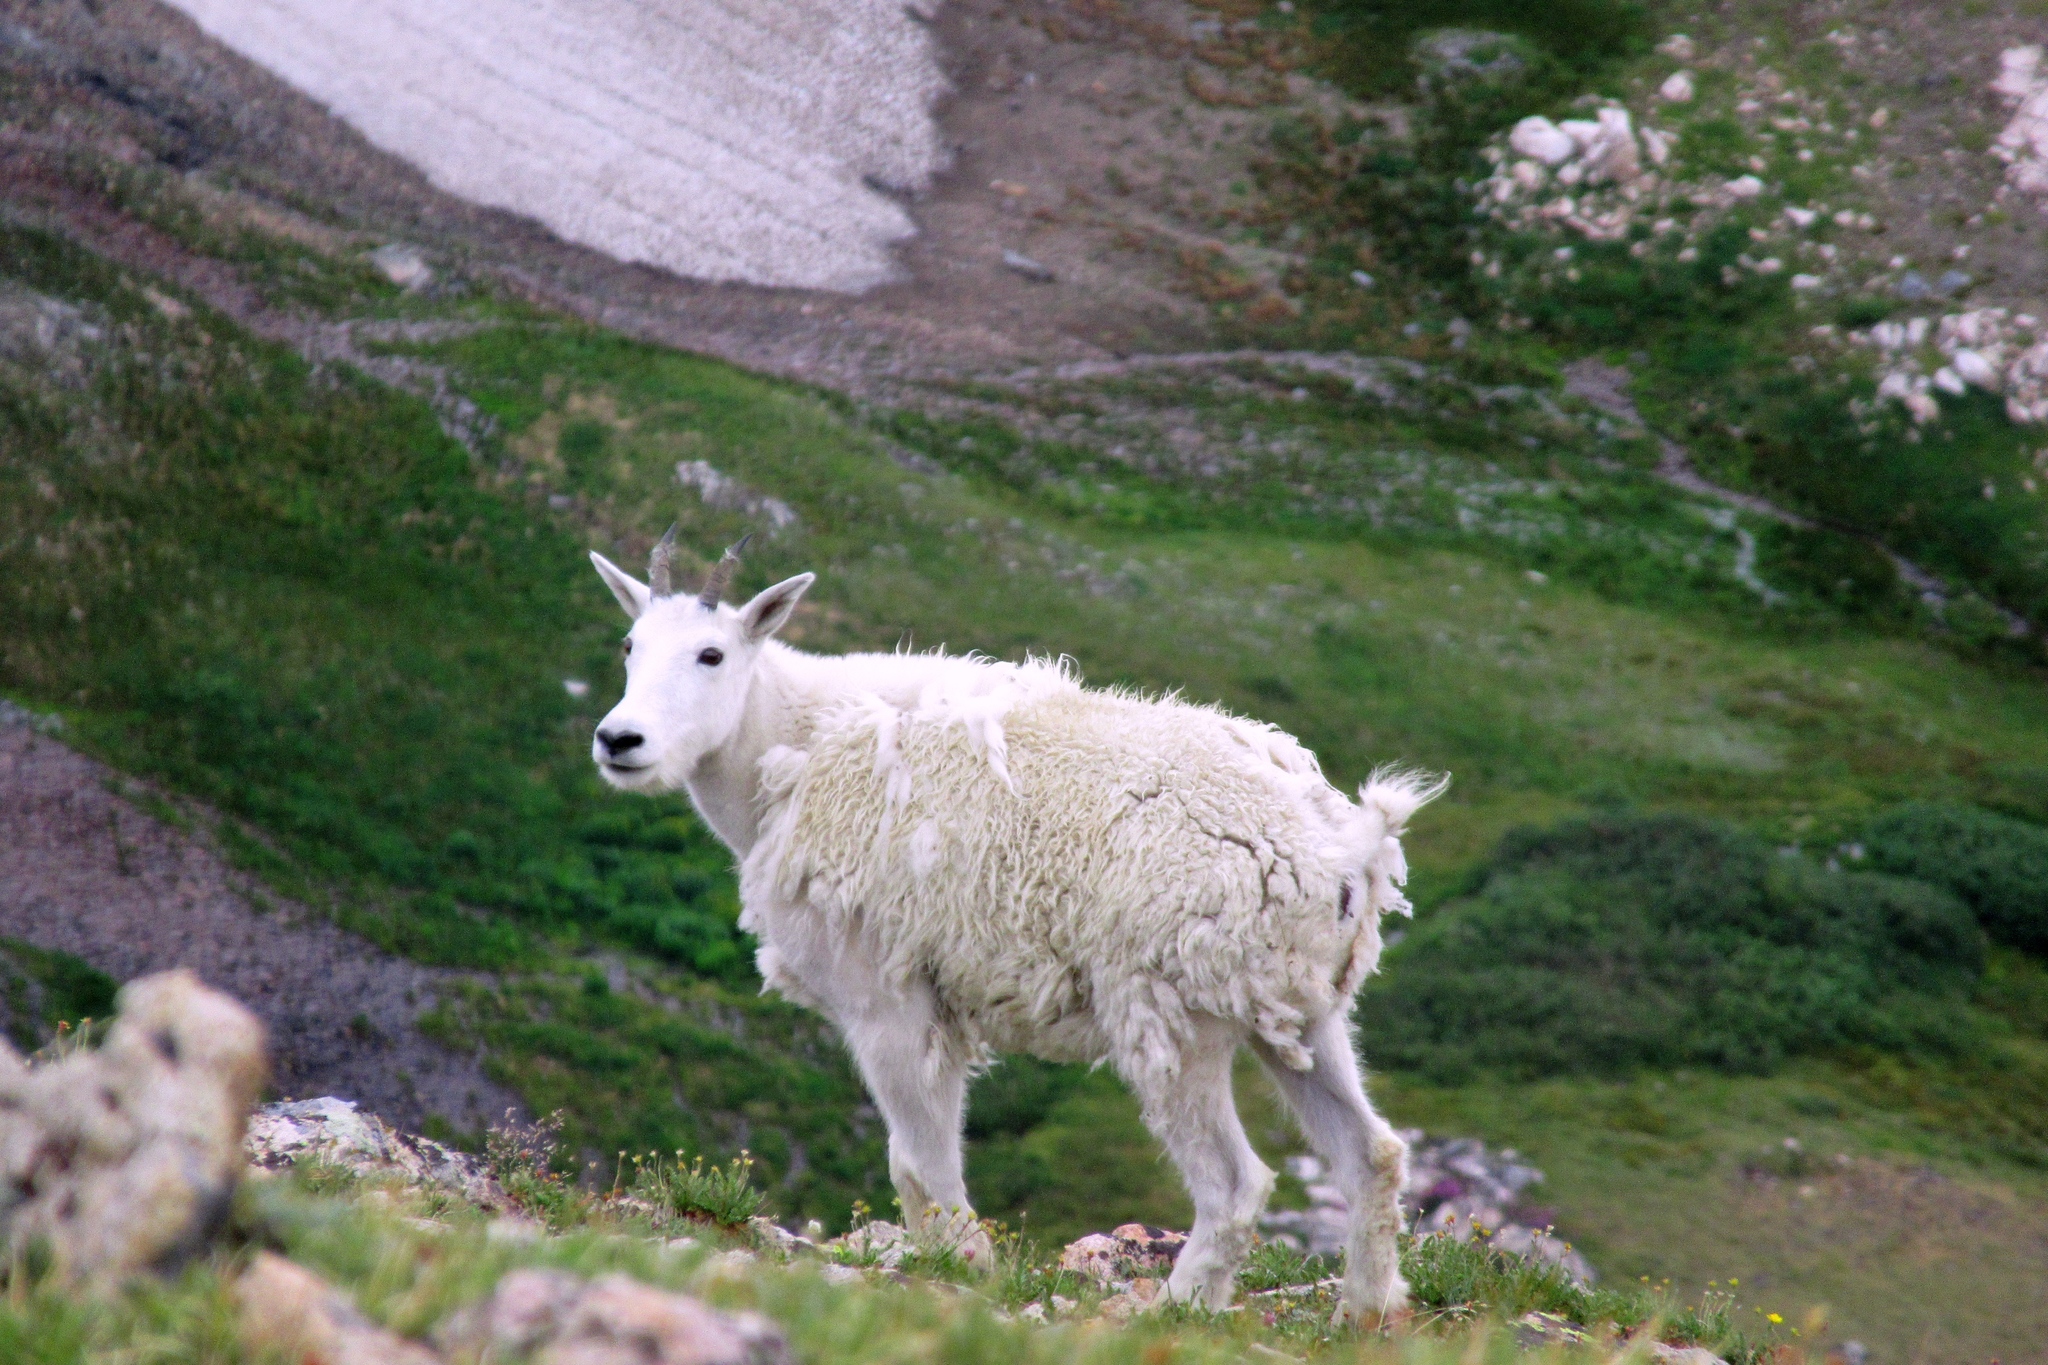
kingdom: Animalia
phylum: Chordata
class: Mammalia
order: Artiodactyla
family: Bovidae
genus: Oreamnos
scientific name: Oreamnos americanus
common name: Mountain goat
